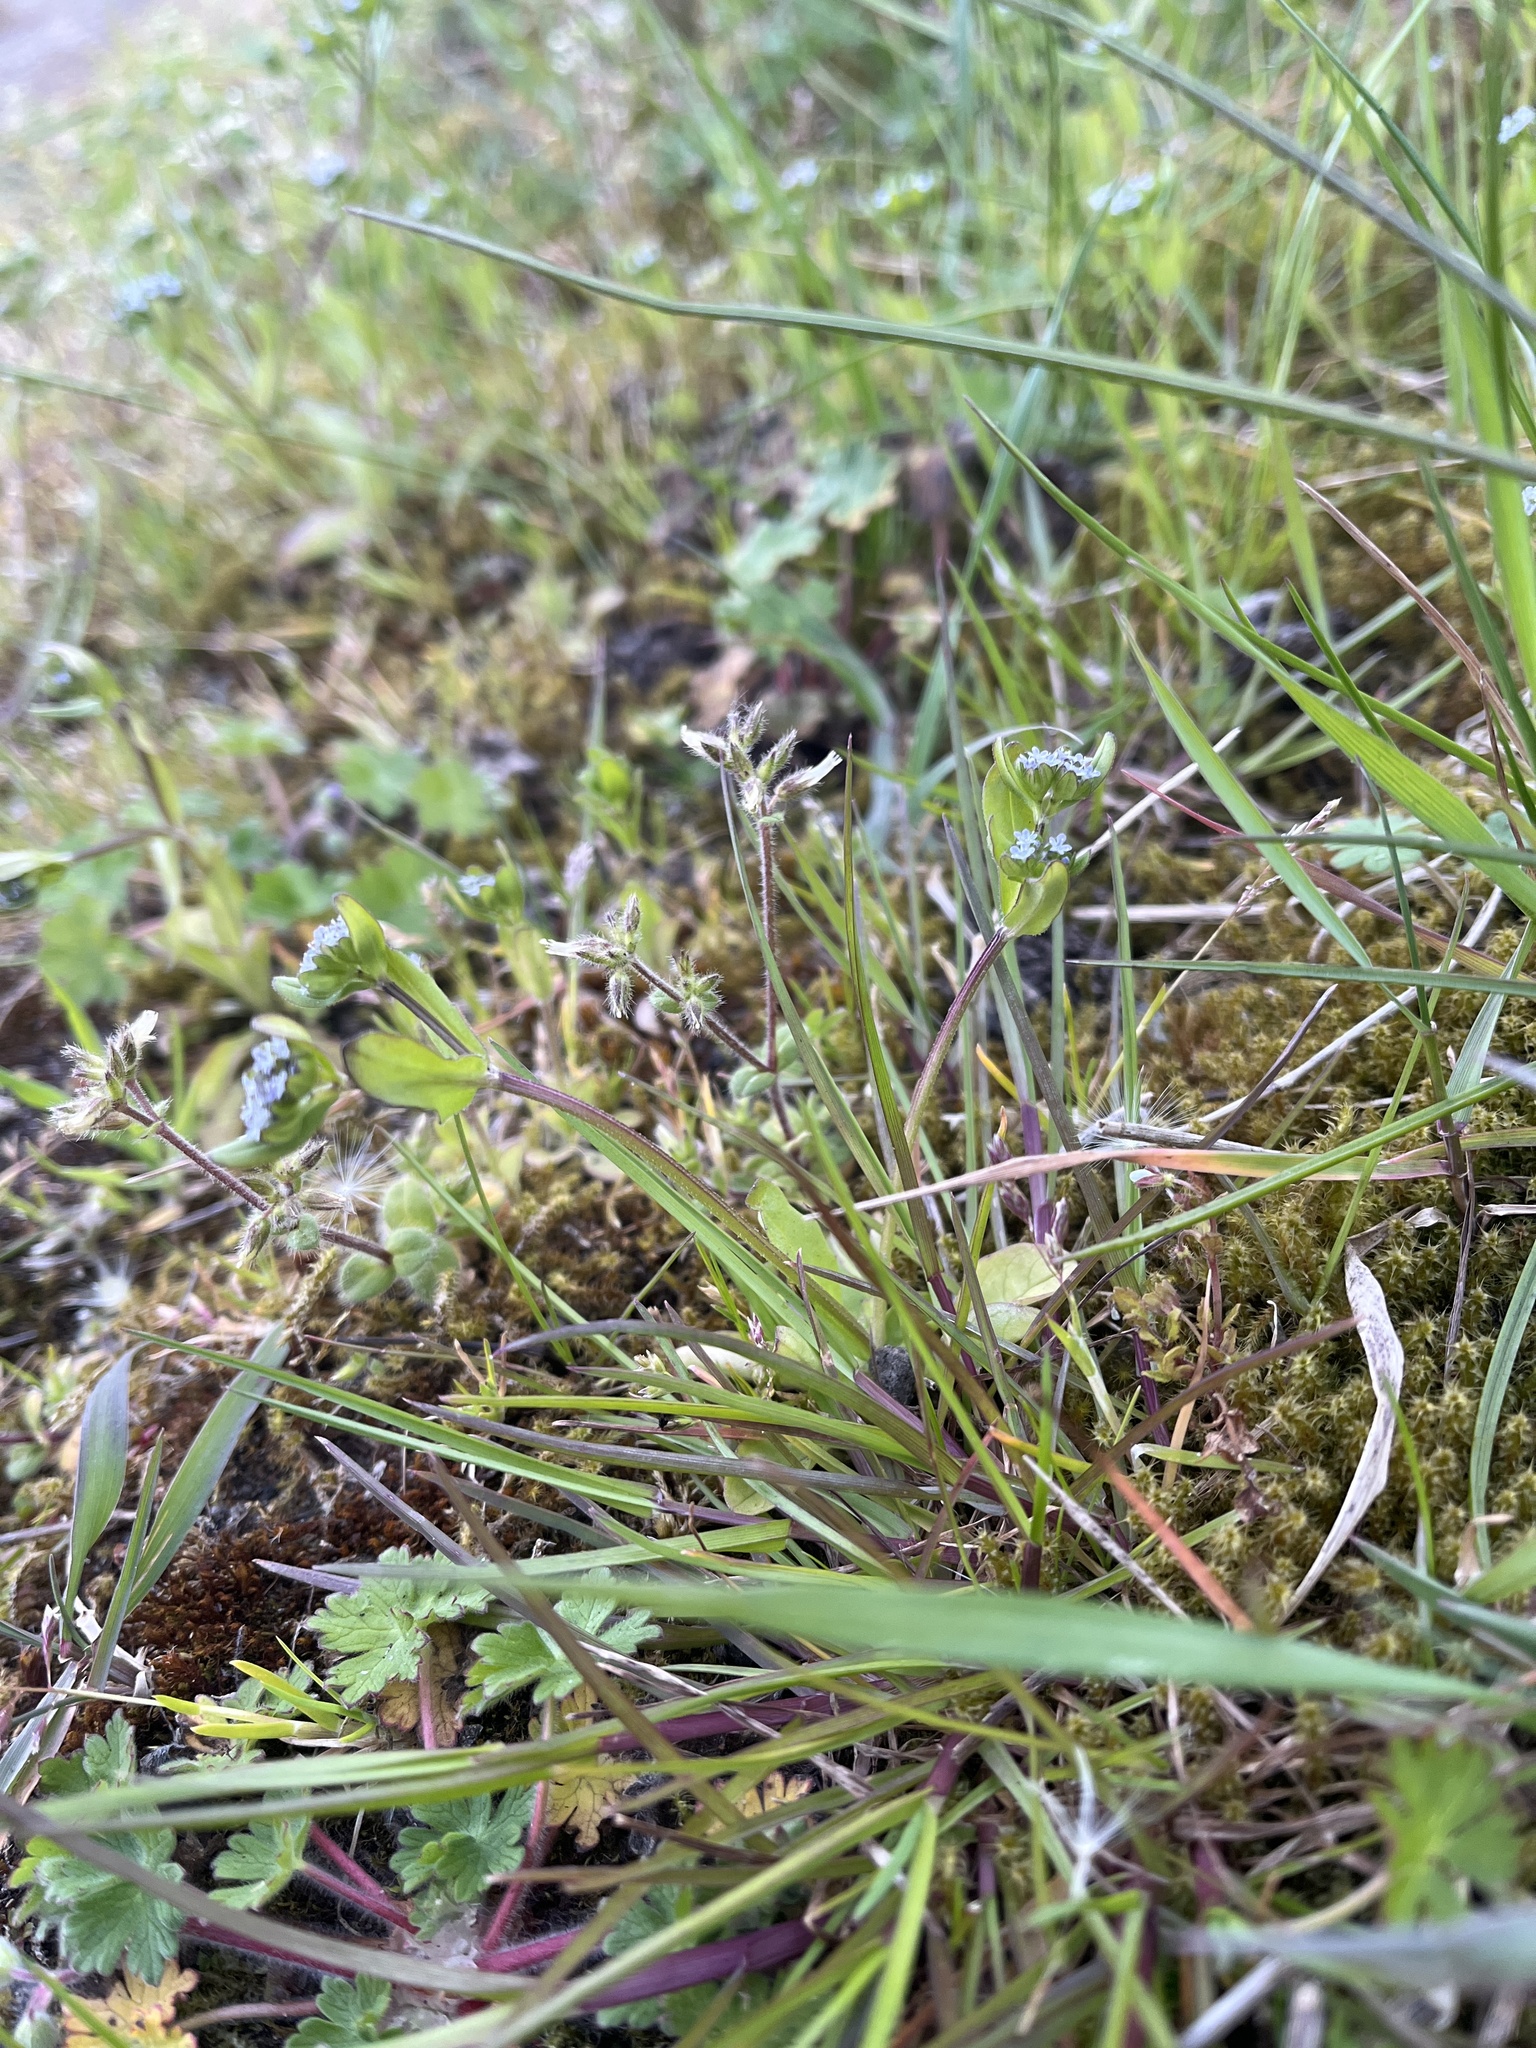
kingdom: Plantae
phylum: Tracheophyta
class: Magnoliopsida
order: Dipsacales
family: Caprifoliaceae
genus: Valerianella
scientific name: Valerianella locusta
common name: Common cornsalad
